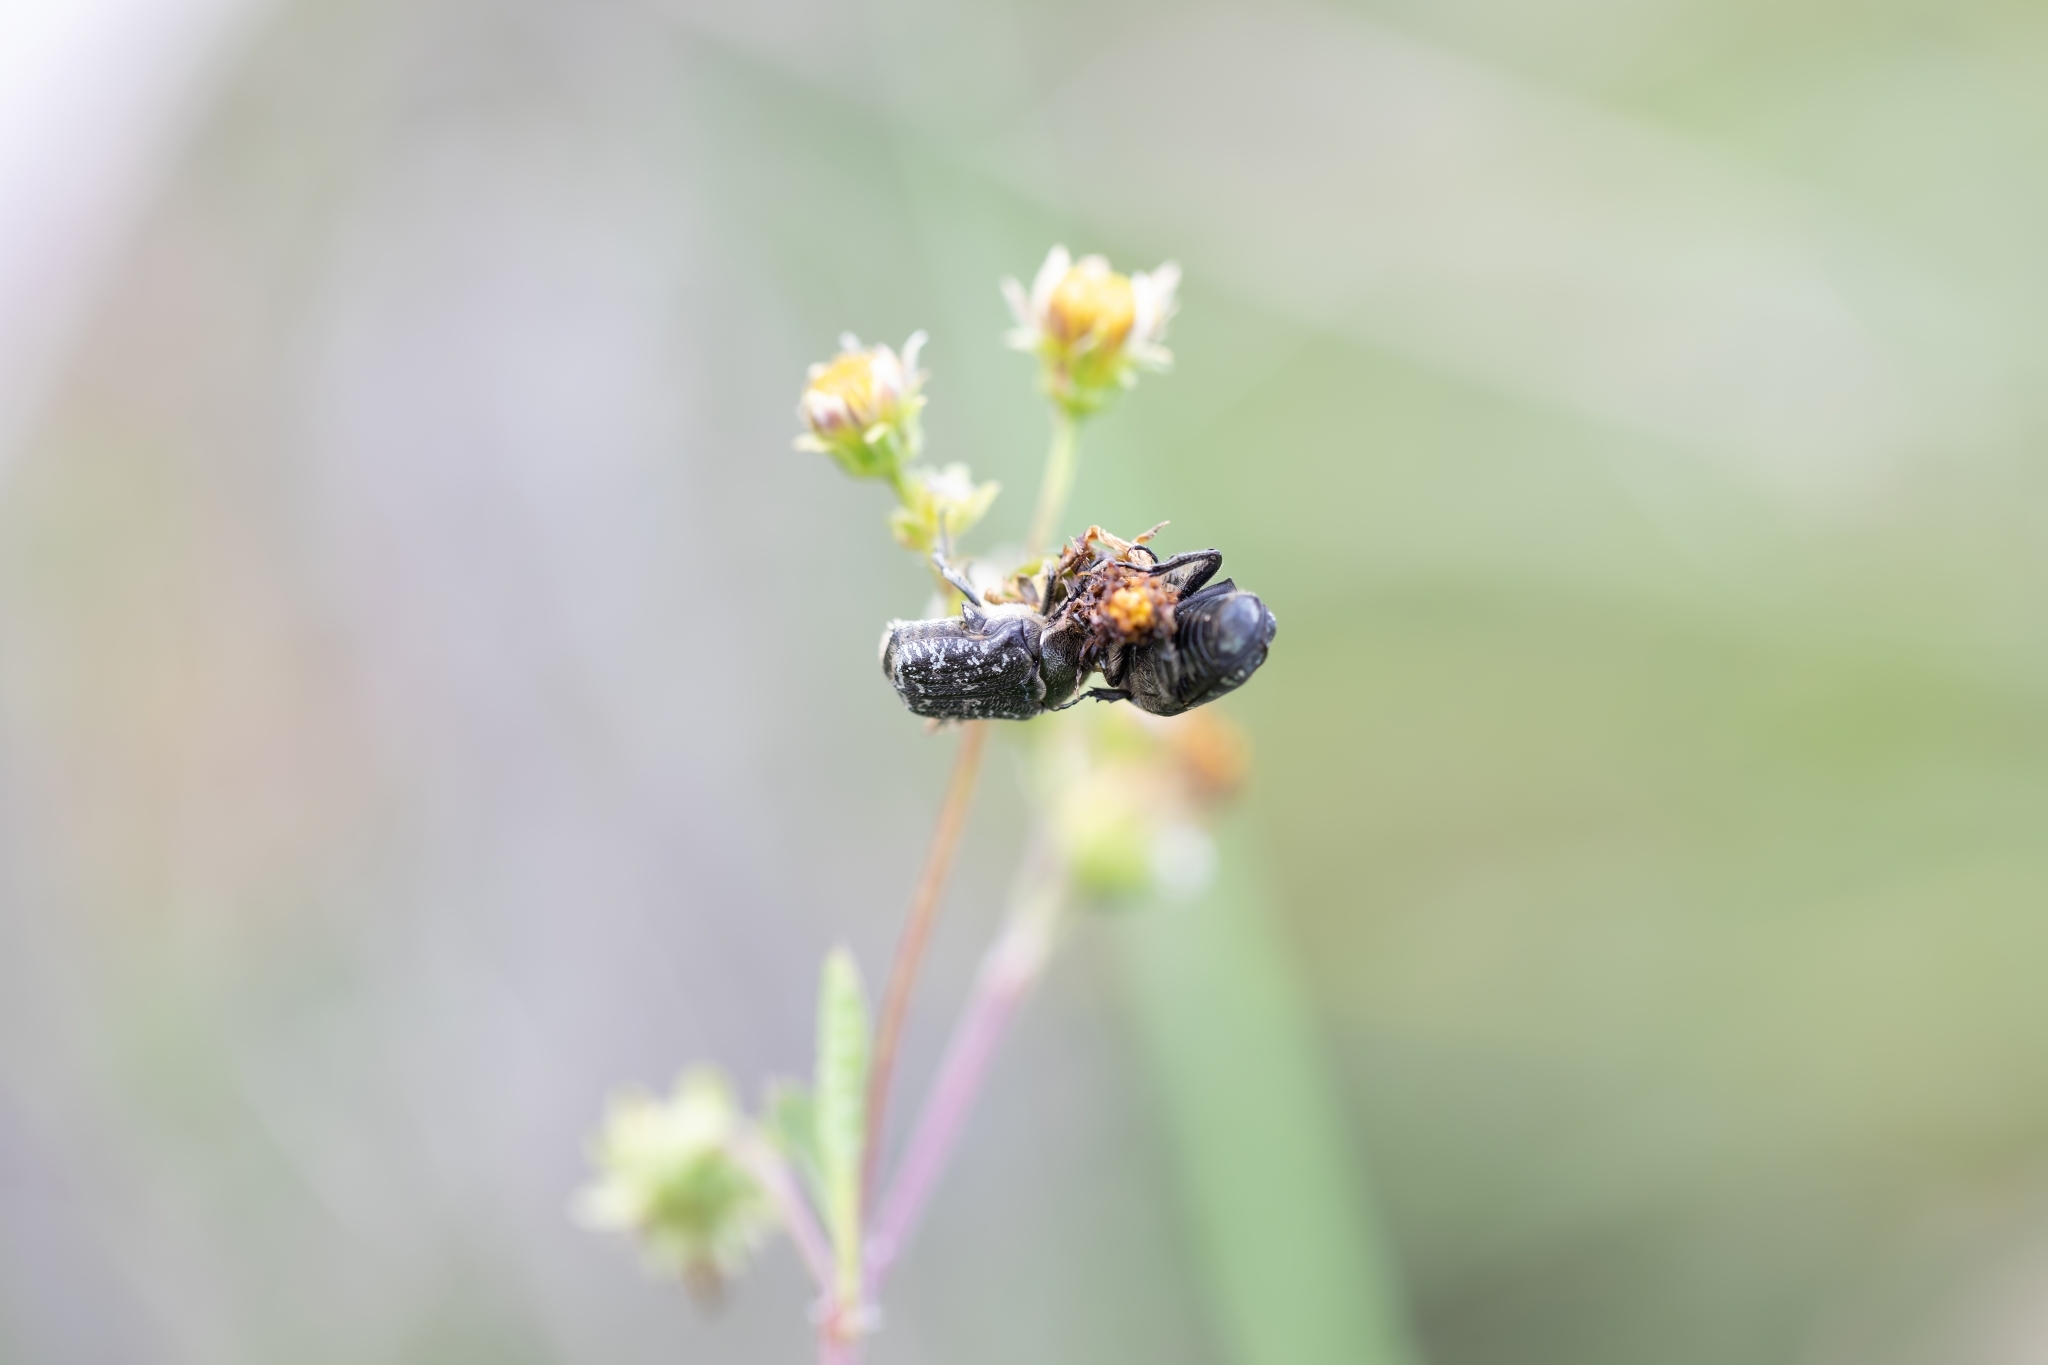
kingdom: Animalia
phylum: Arthropoda
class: Insecta
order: Coleoptera
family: Scarabaeidae
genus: Euphoria
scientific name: Euphoria sepulcralis
